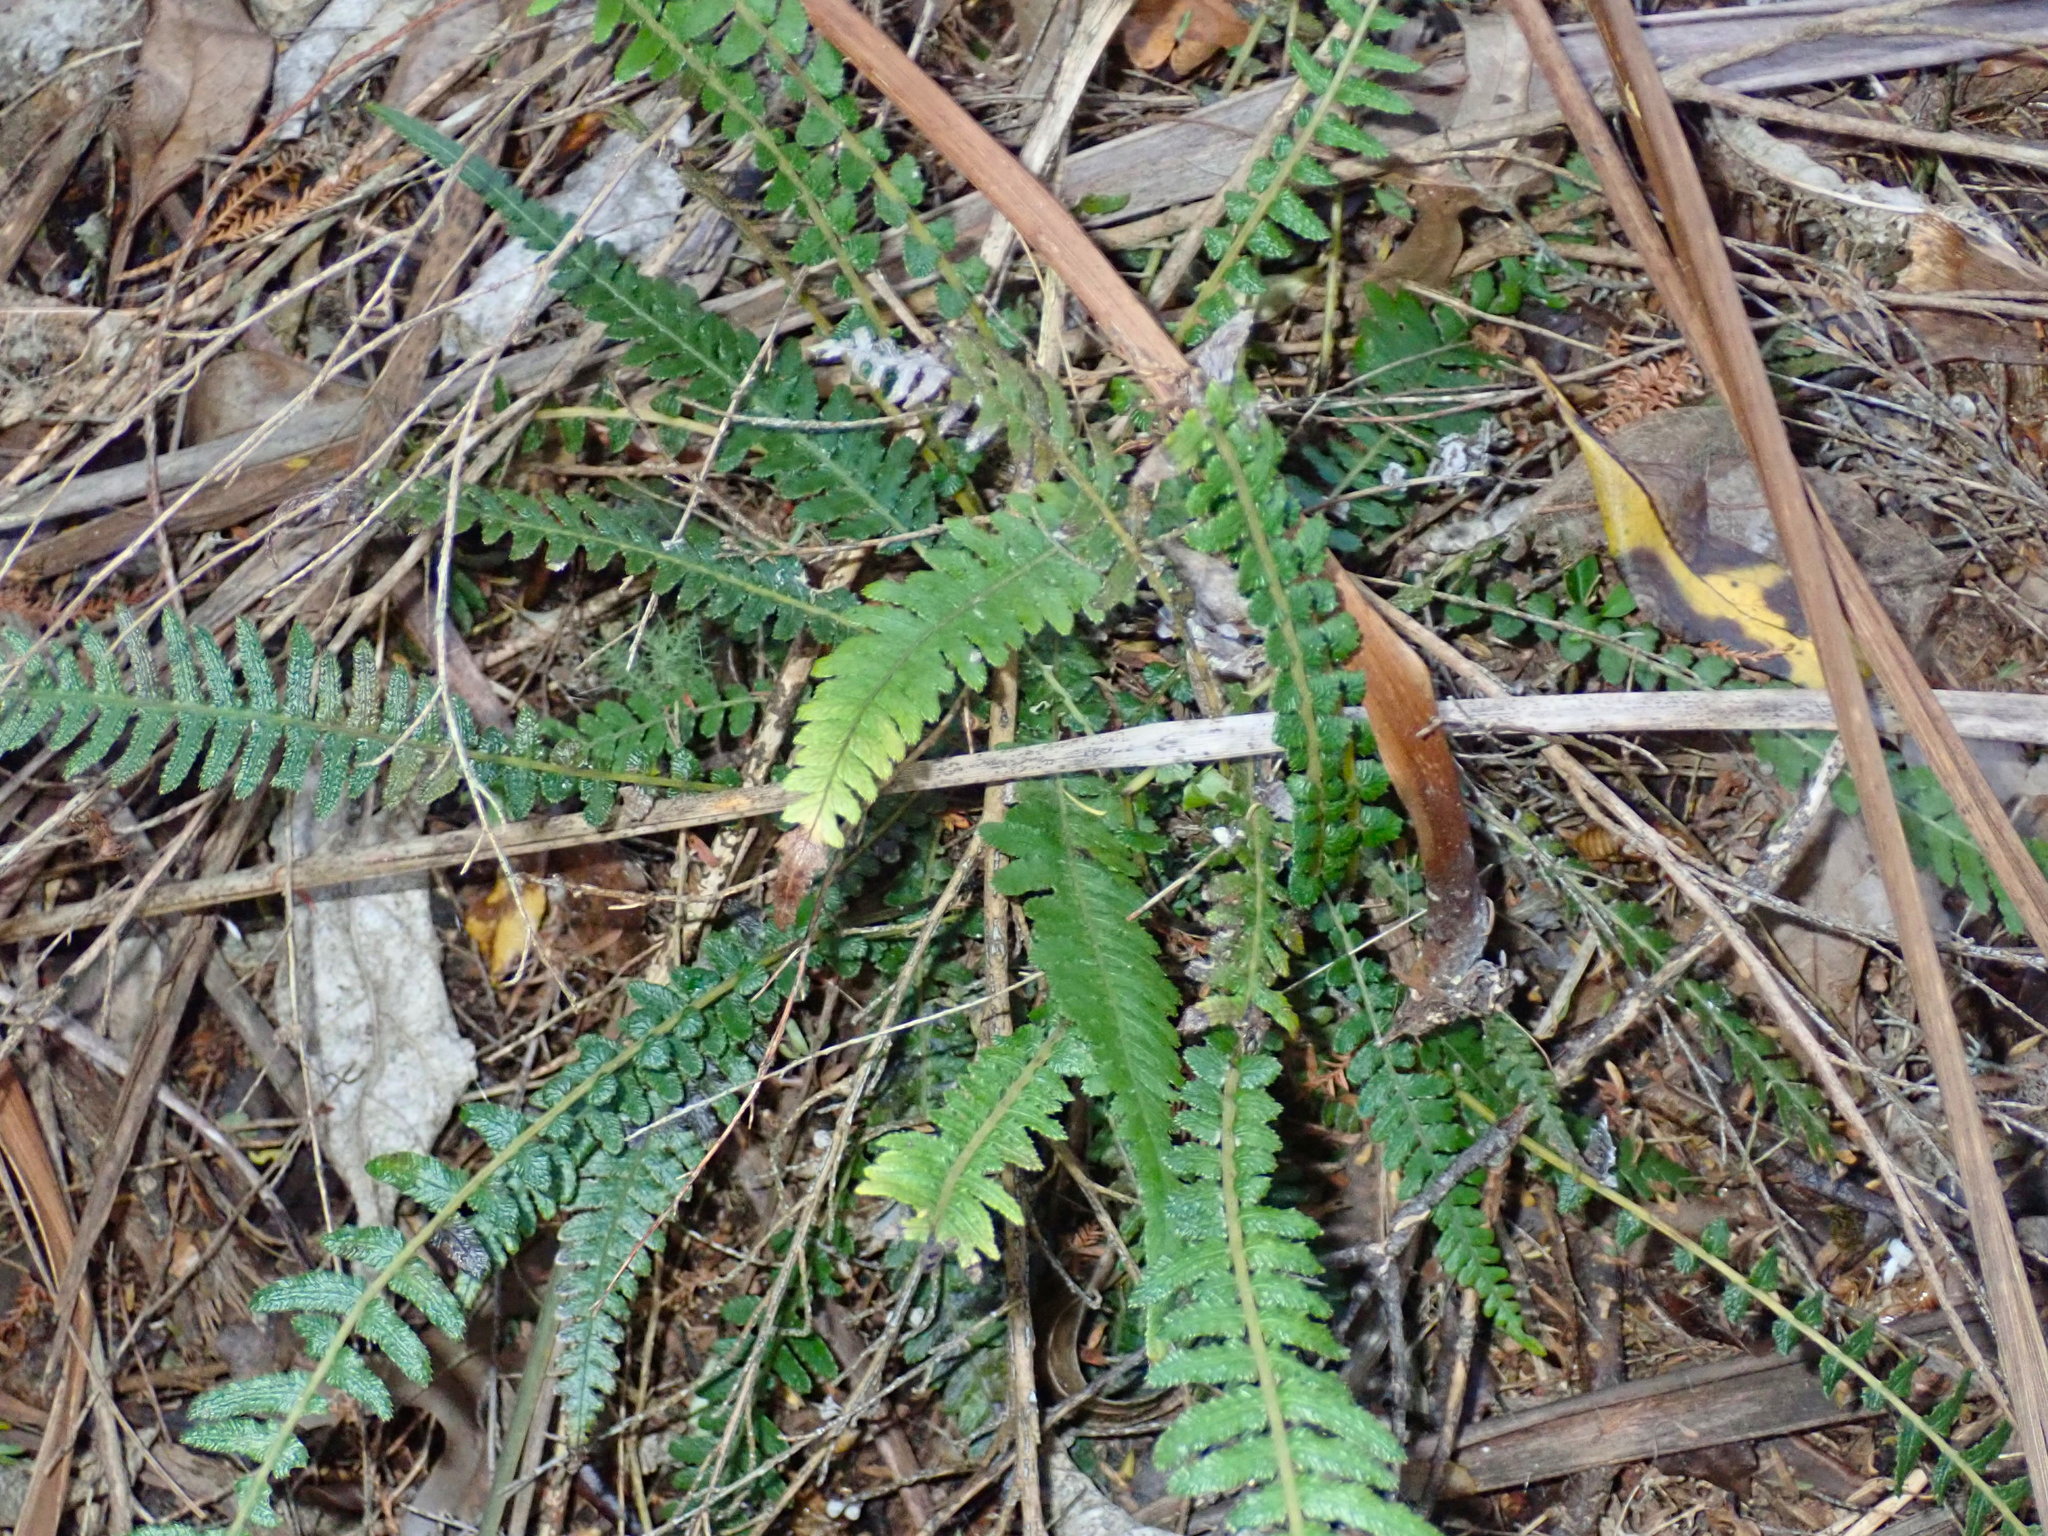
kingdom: Plantae
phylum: Tracheophyta
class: Polypodiopsida
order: Polypodiales
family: Blechnaceae
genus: Doodia
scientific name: Doodia australis
